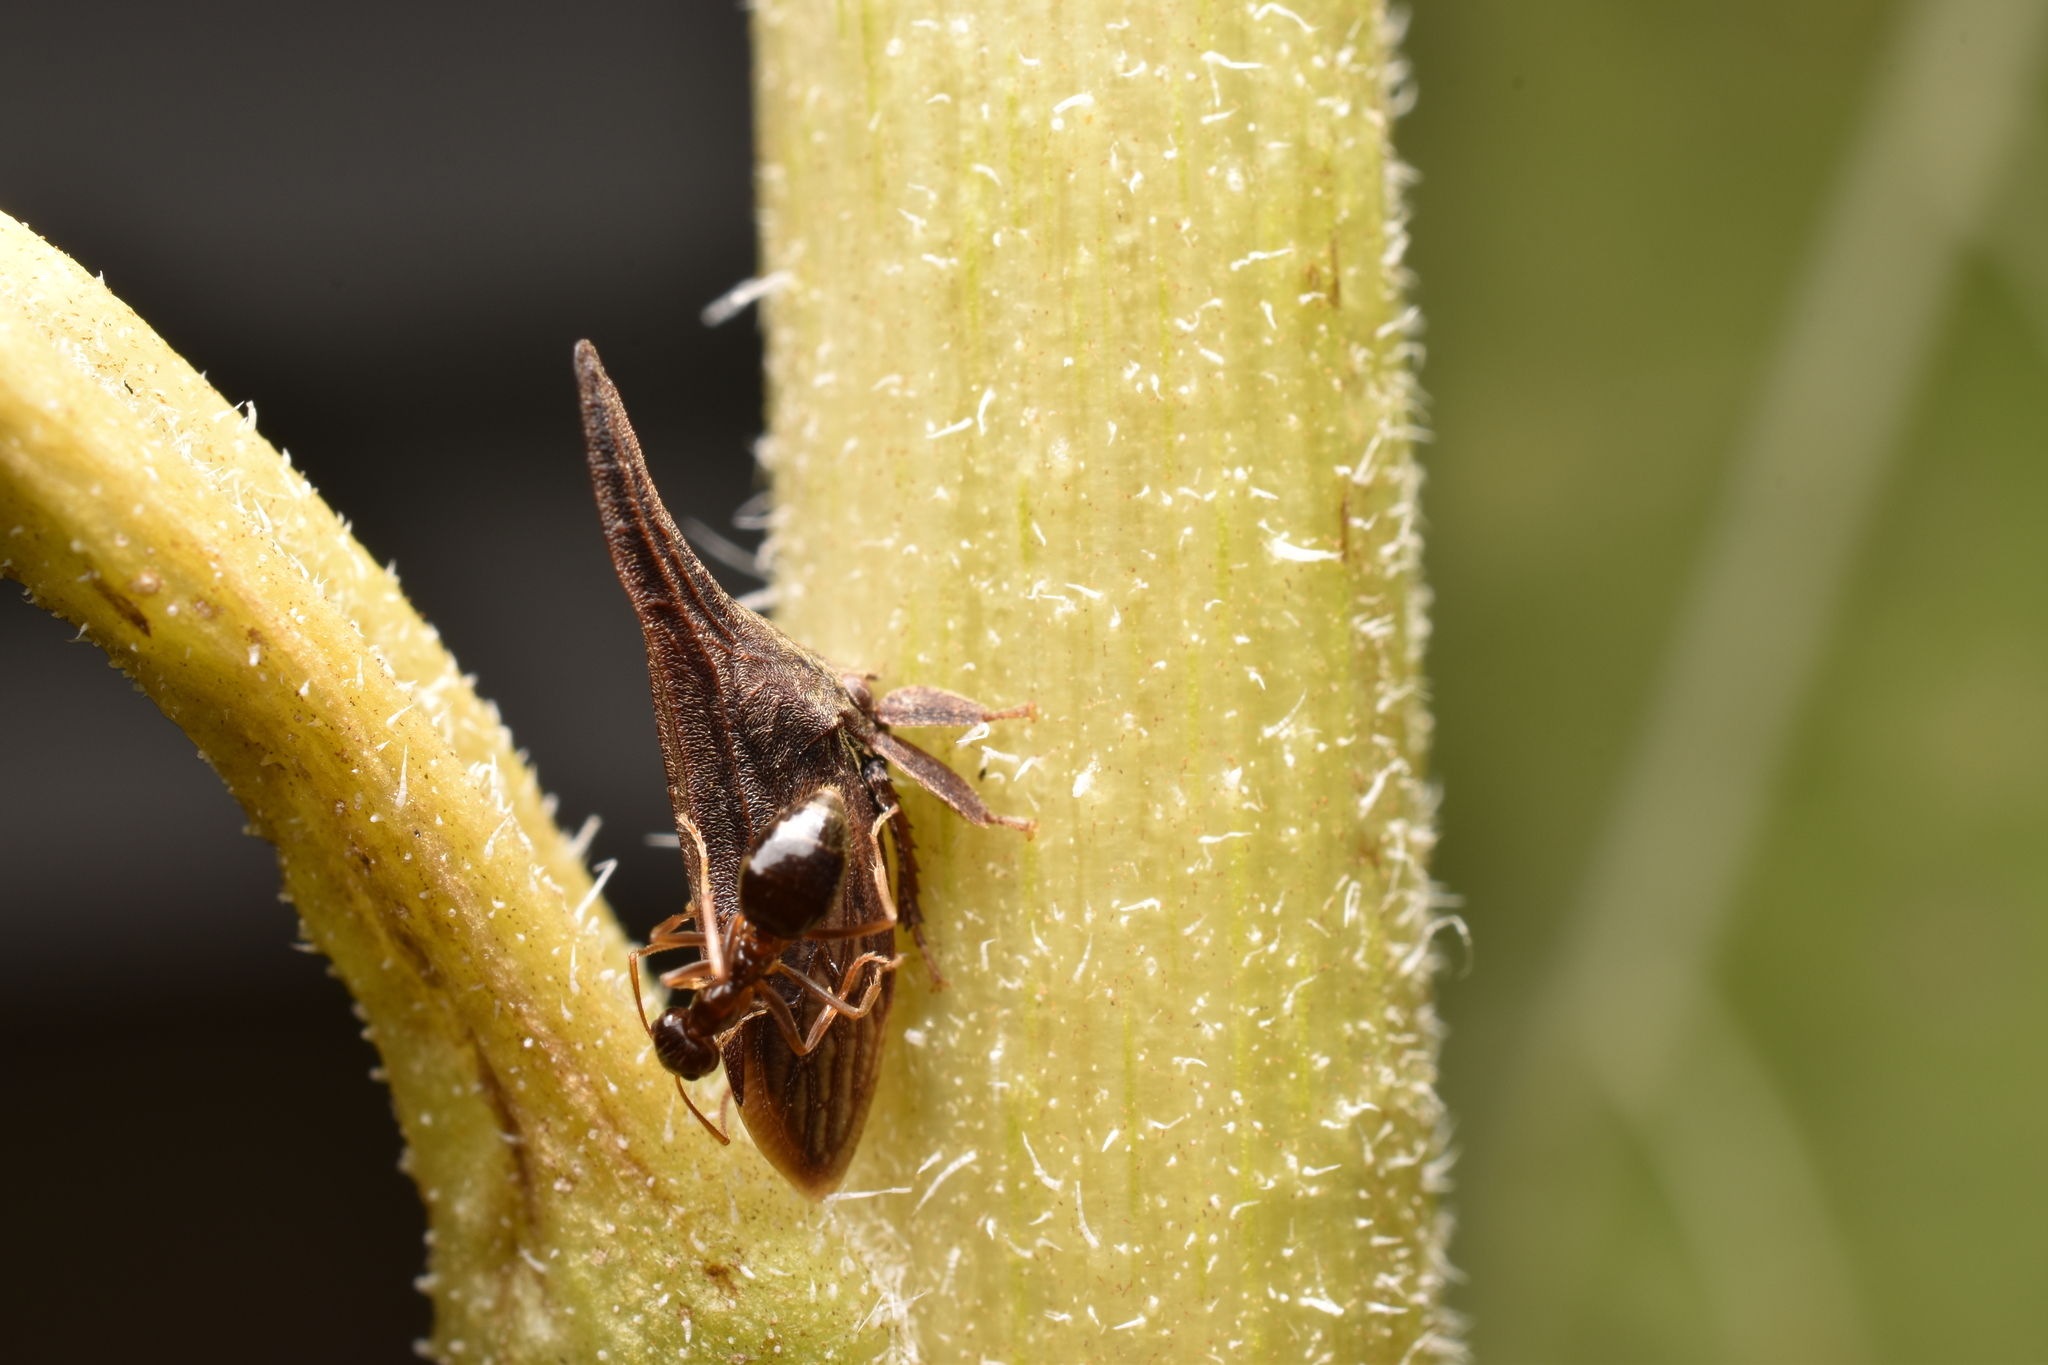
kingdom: Animalia
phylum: Arthropoda
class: Insecta
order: Hemiptera
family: Membracidae
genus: Enchenopa
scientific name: Enchenopa latipes
